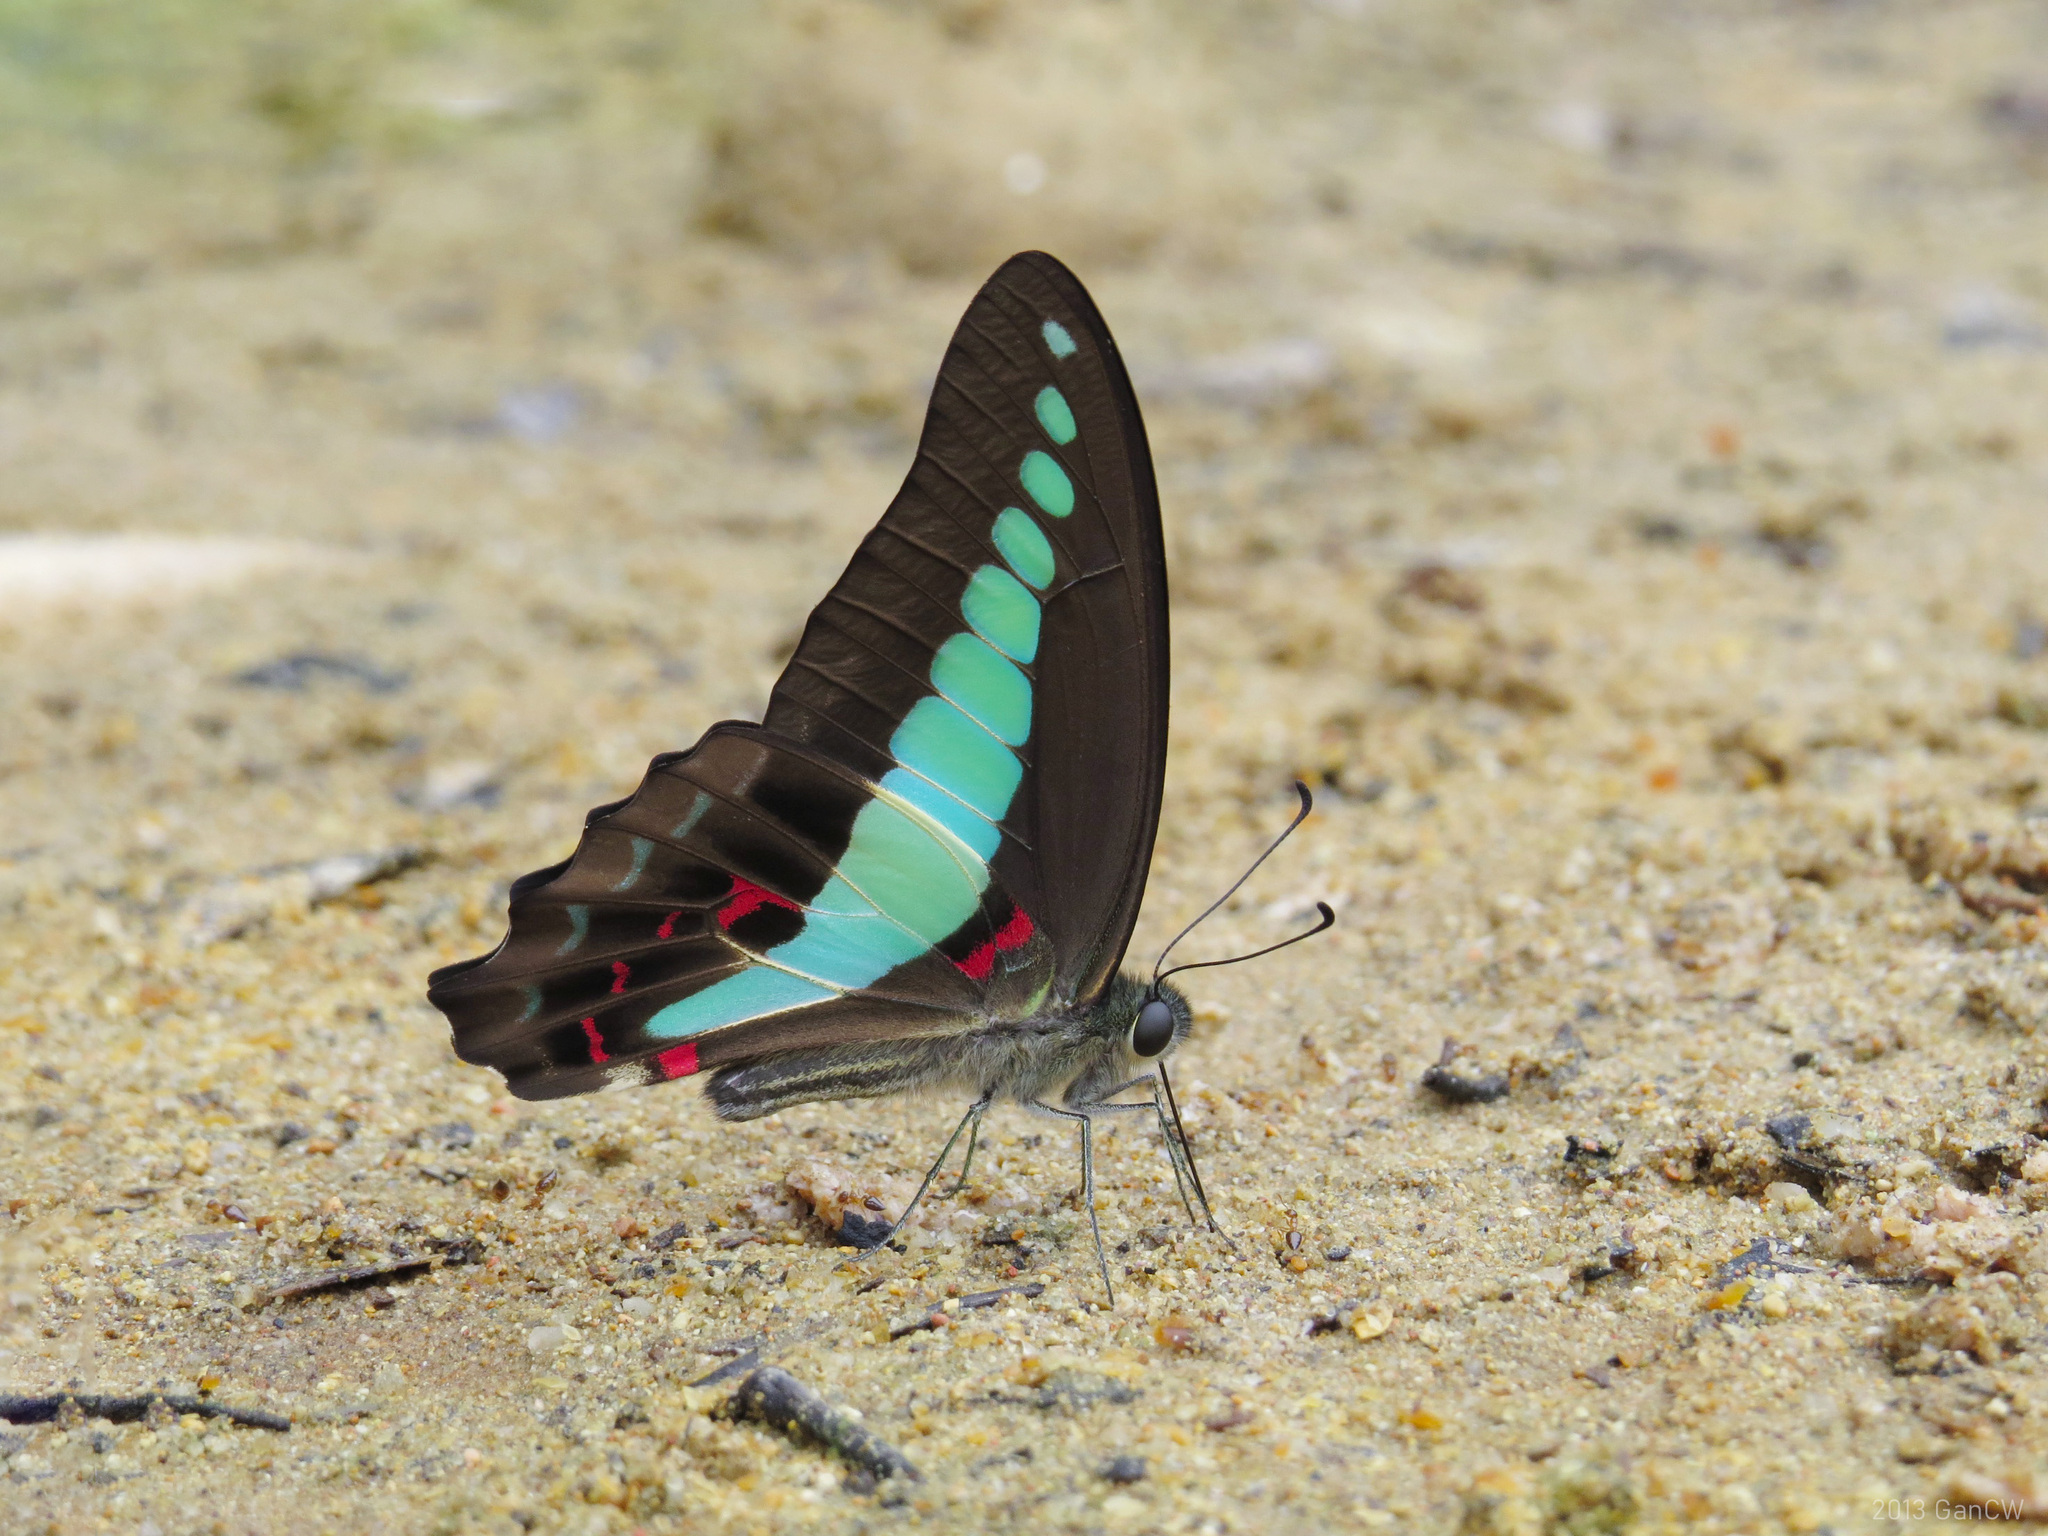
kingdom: Fungi
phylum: Ascomycota
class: Sordariomycetes
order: Microascales
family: Microascaceae
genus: Graphium
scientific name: Graphium sarpedon
